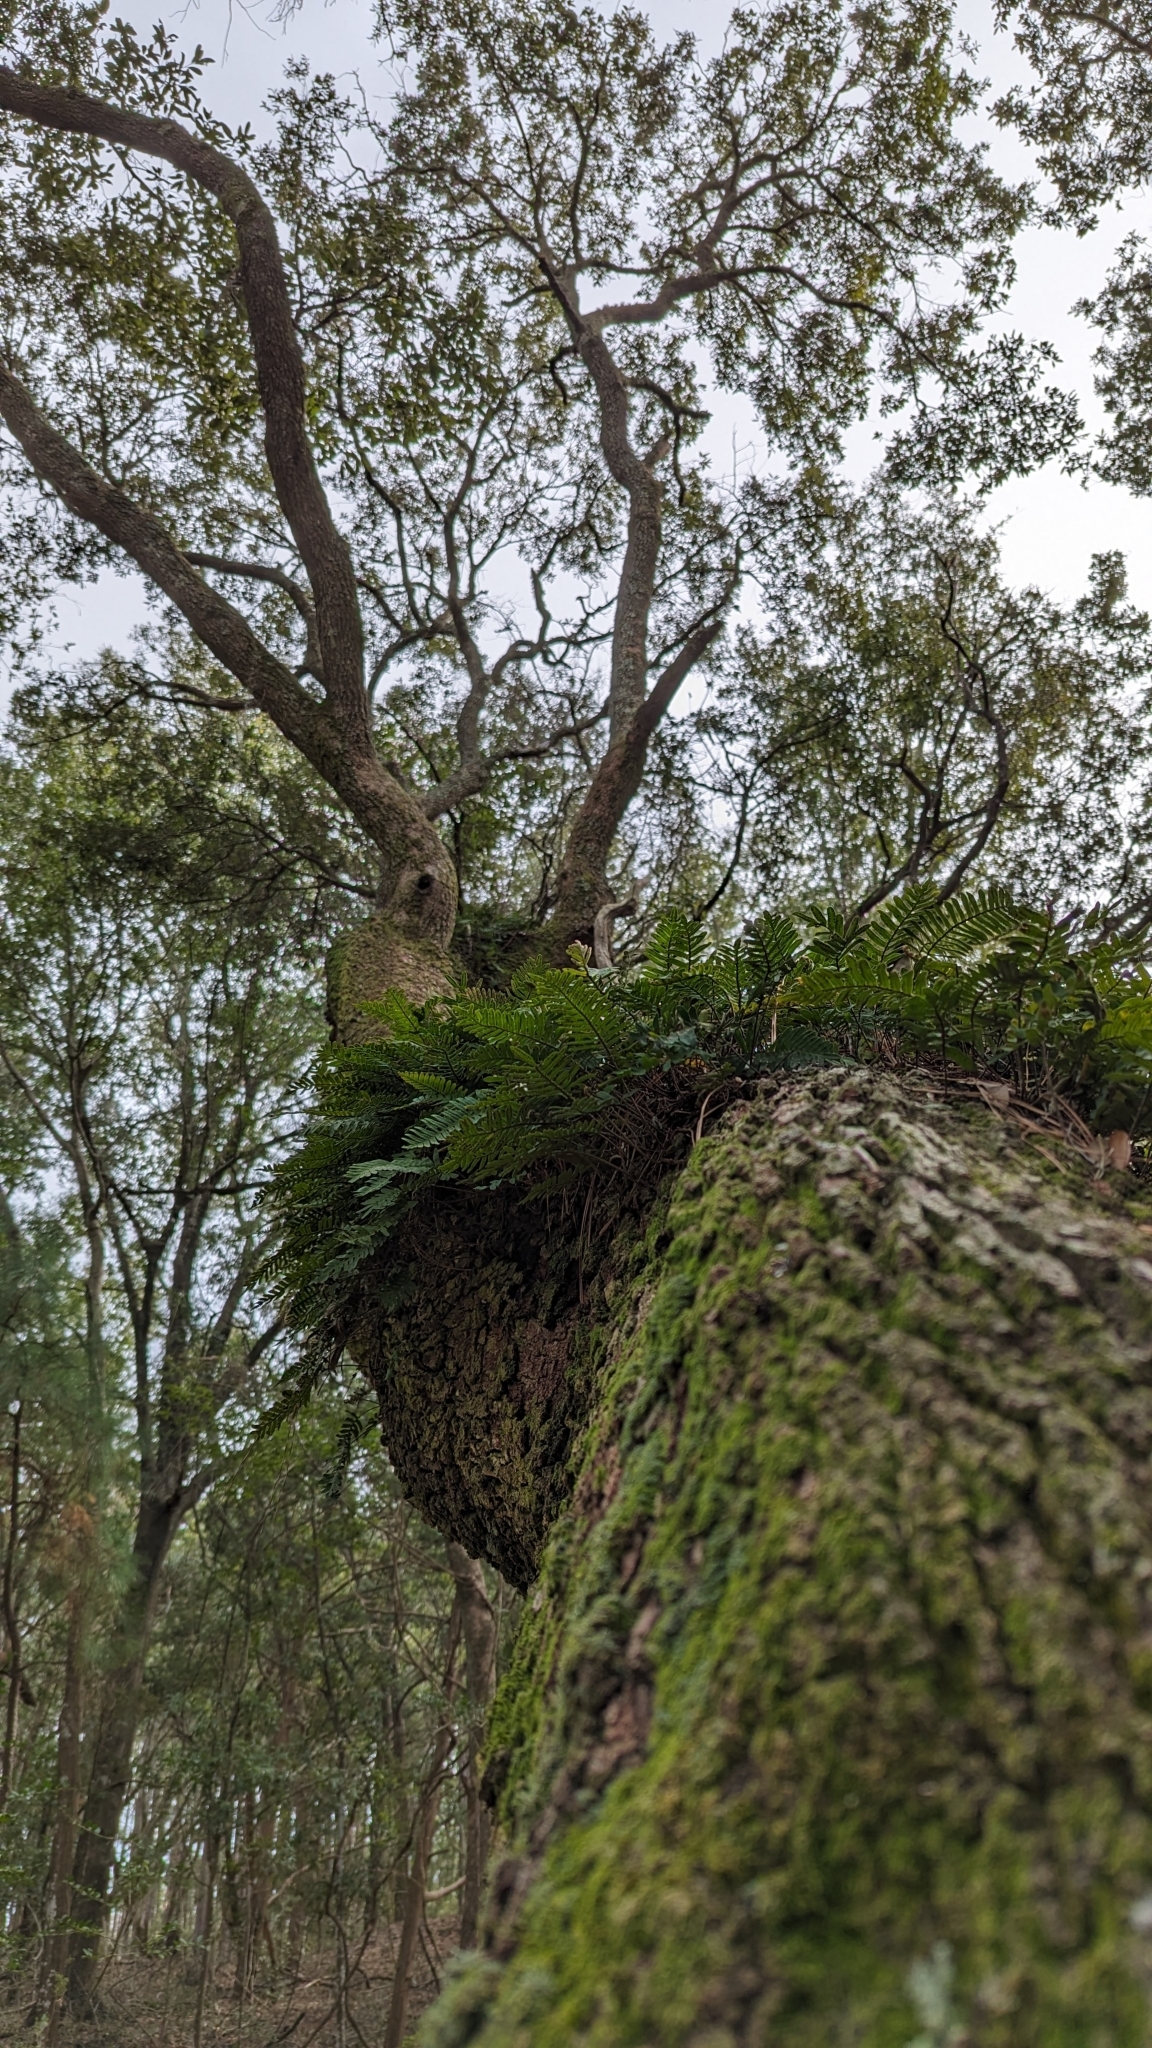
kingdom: Plantae
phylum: Tracheophyta
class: Polypodiopsida
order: Polypodiales
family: Polypodiaceae
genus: Pleopeltis
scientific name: Pleopeltis michauxiana
